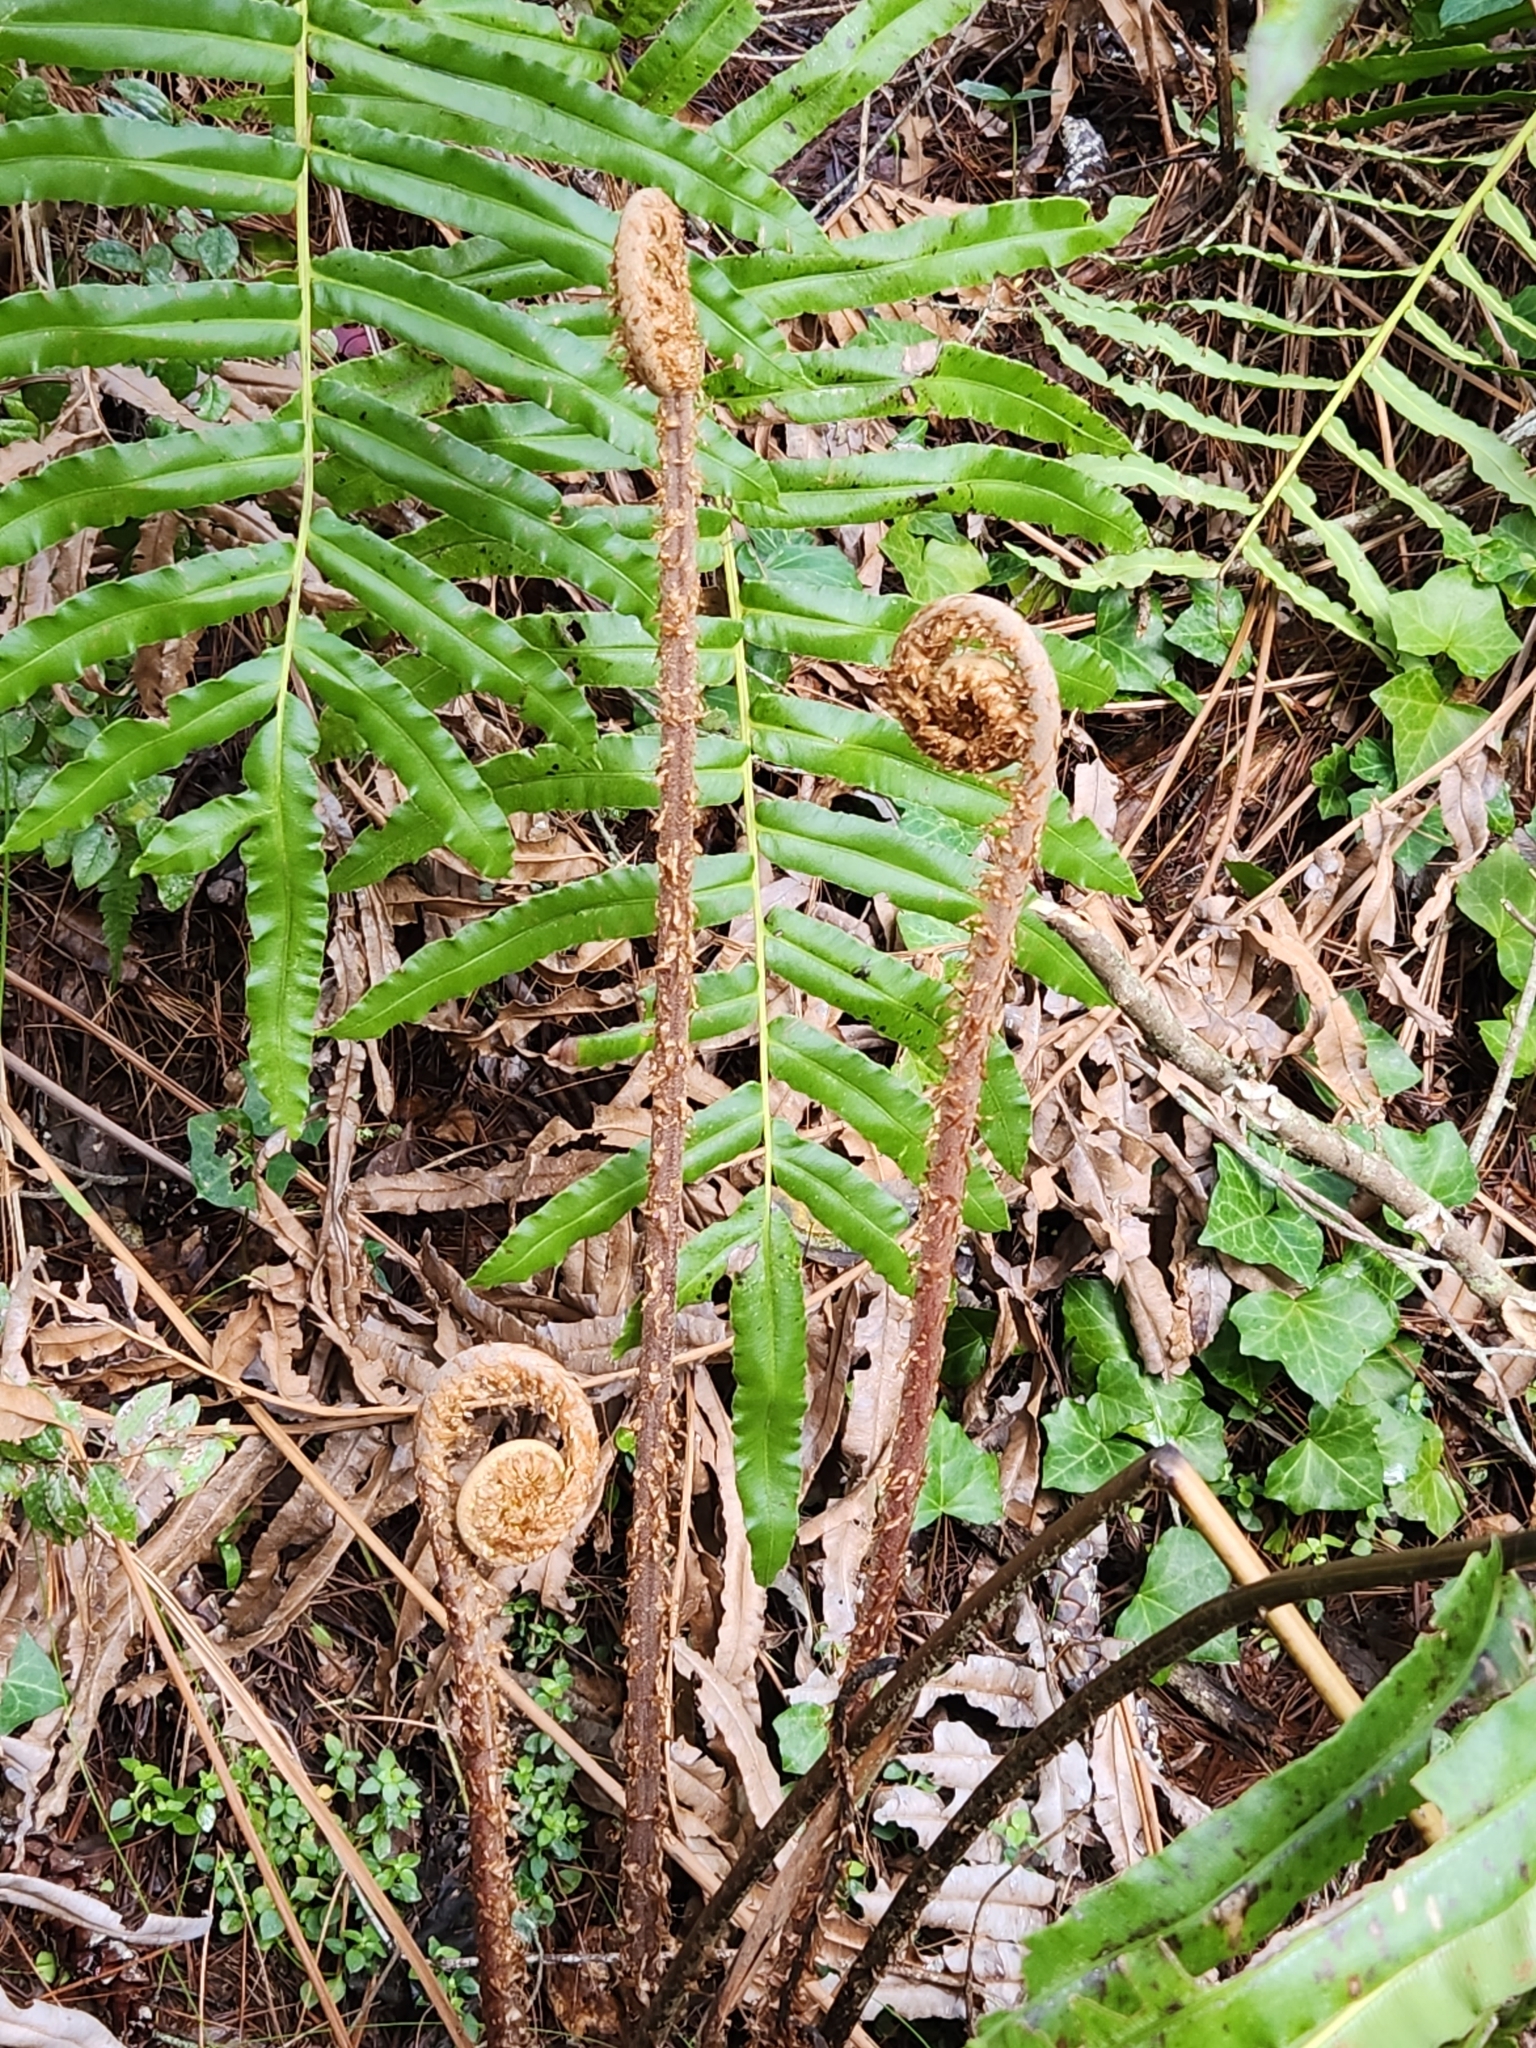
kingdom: Plantae
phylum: Tracheophyta
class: Polypodiopsida
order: Polypodiales
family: Blechnaceae
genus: Parablechnum
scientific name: Parablechnum chilense
